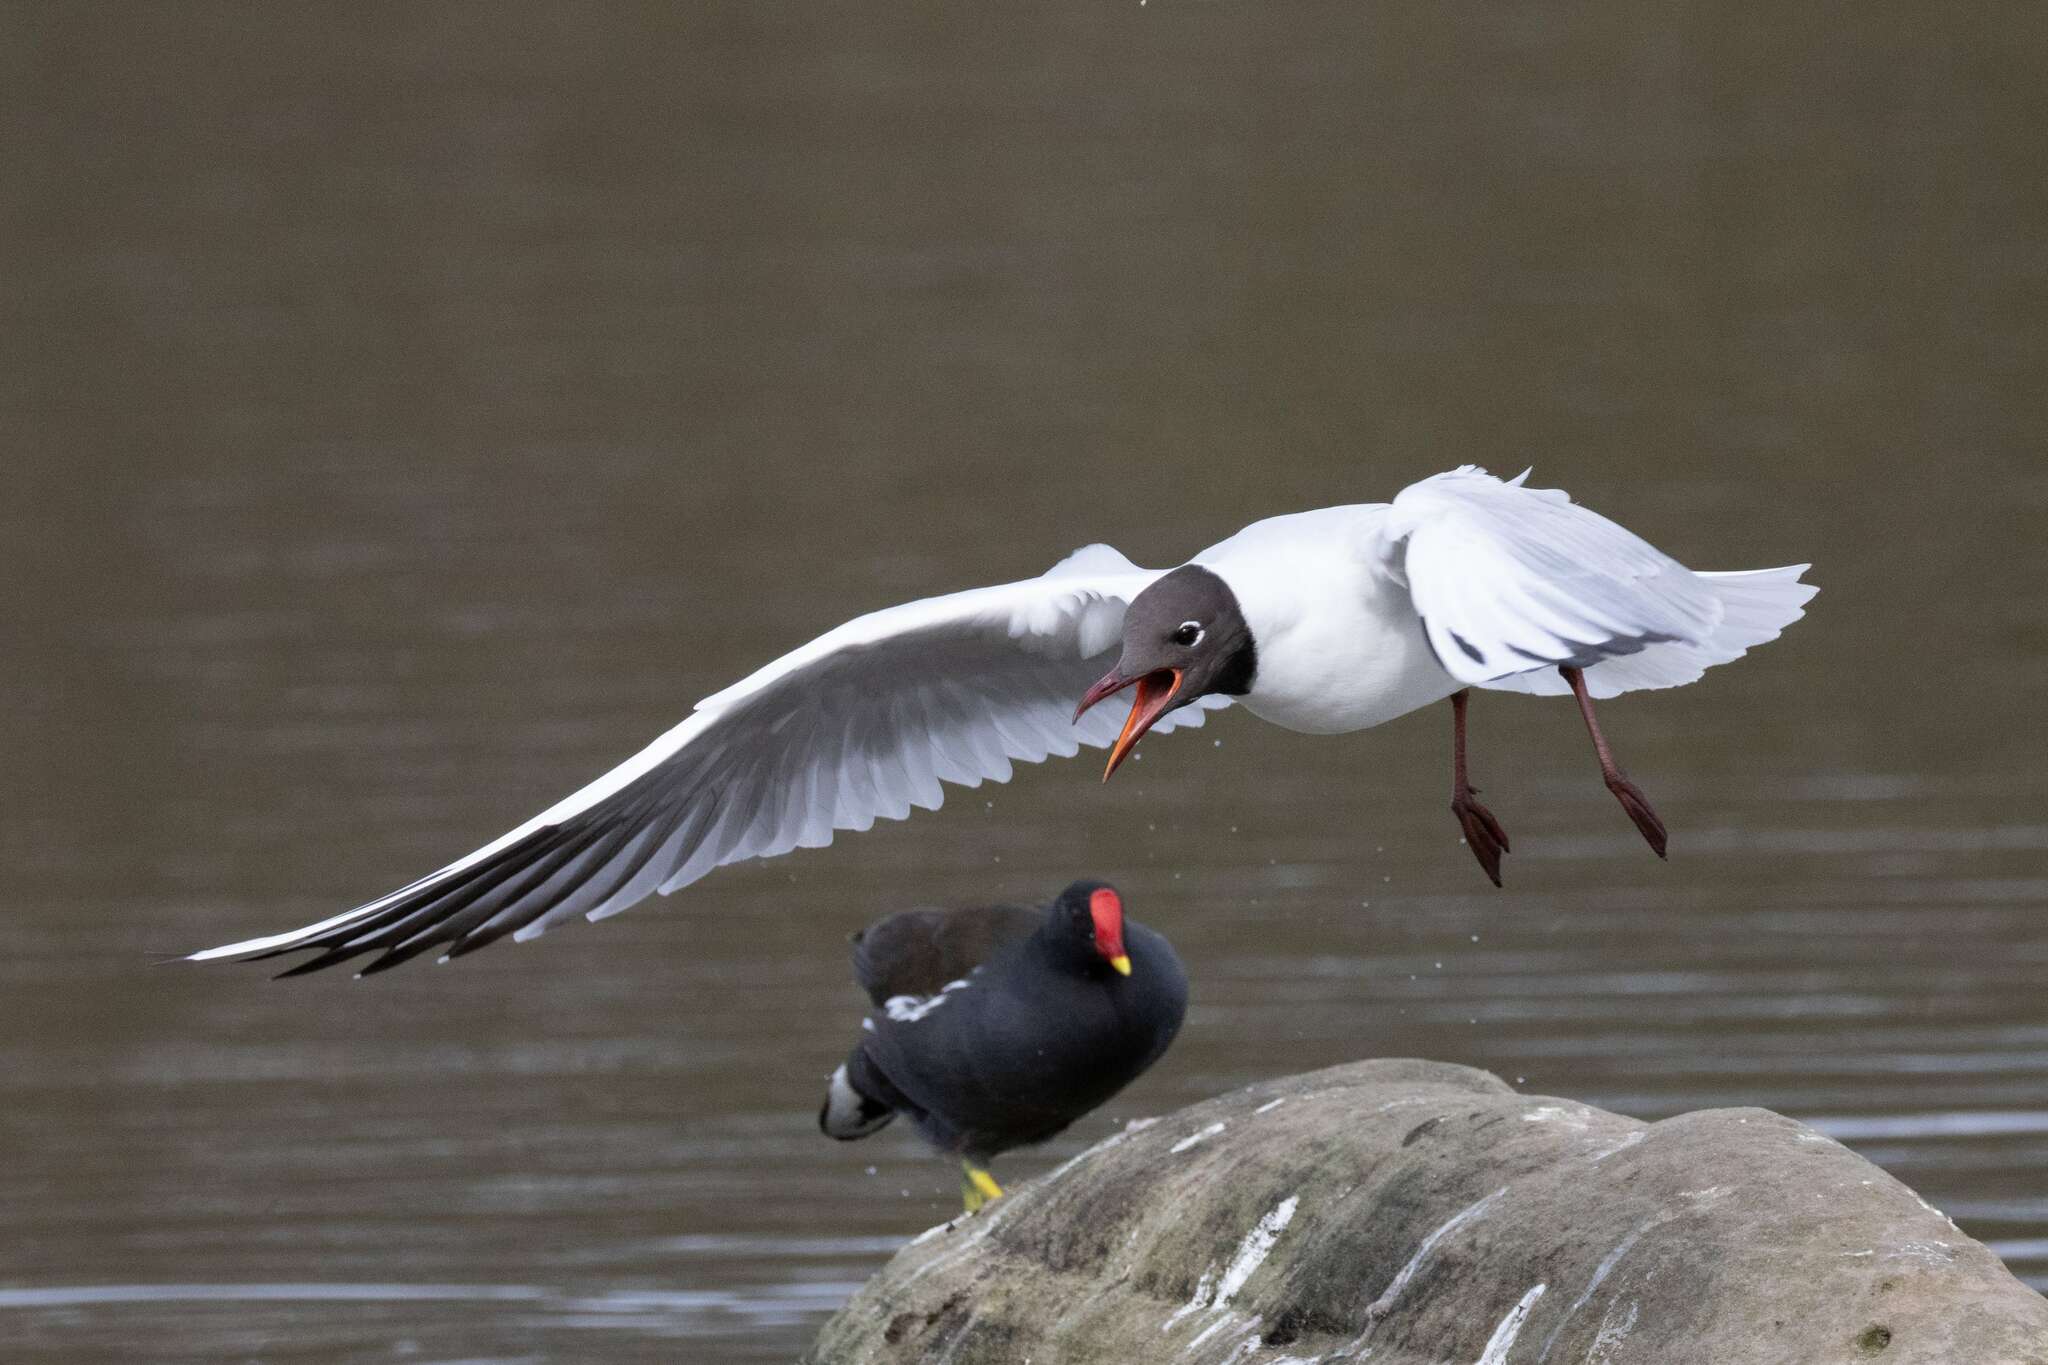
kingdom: Animalia
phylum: Chordata
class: Aves
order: Gruiformes
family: Rallidae
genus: Gallinula
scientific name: Gallinula chloropus
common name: Common moorhen
